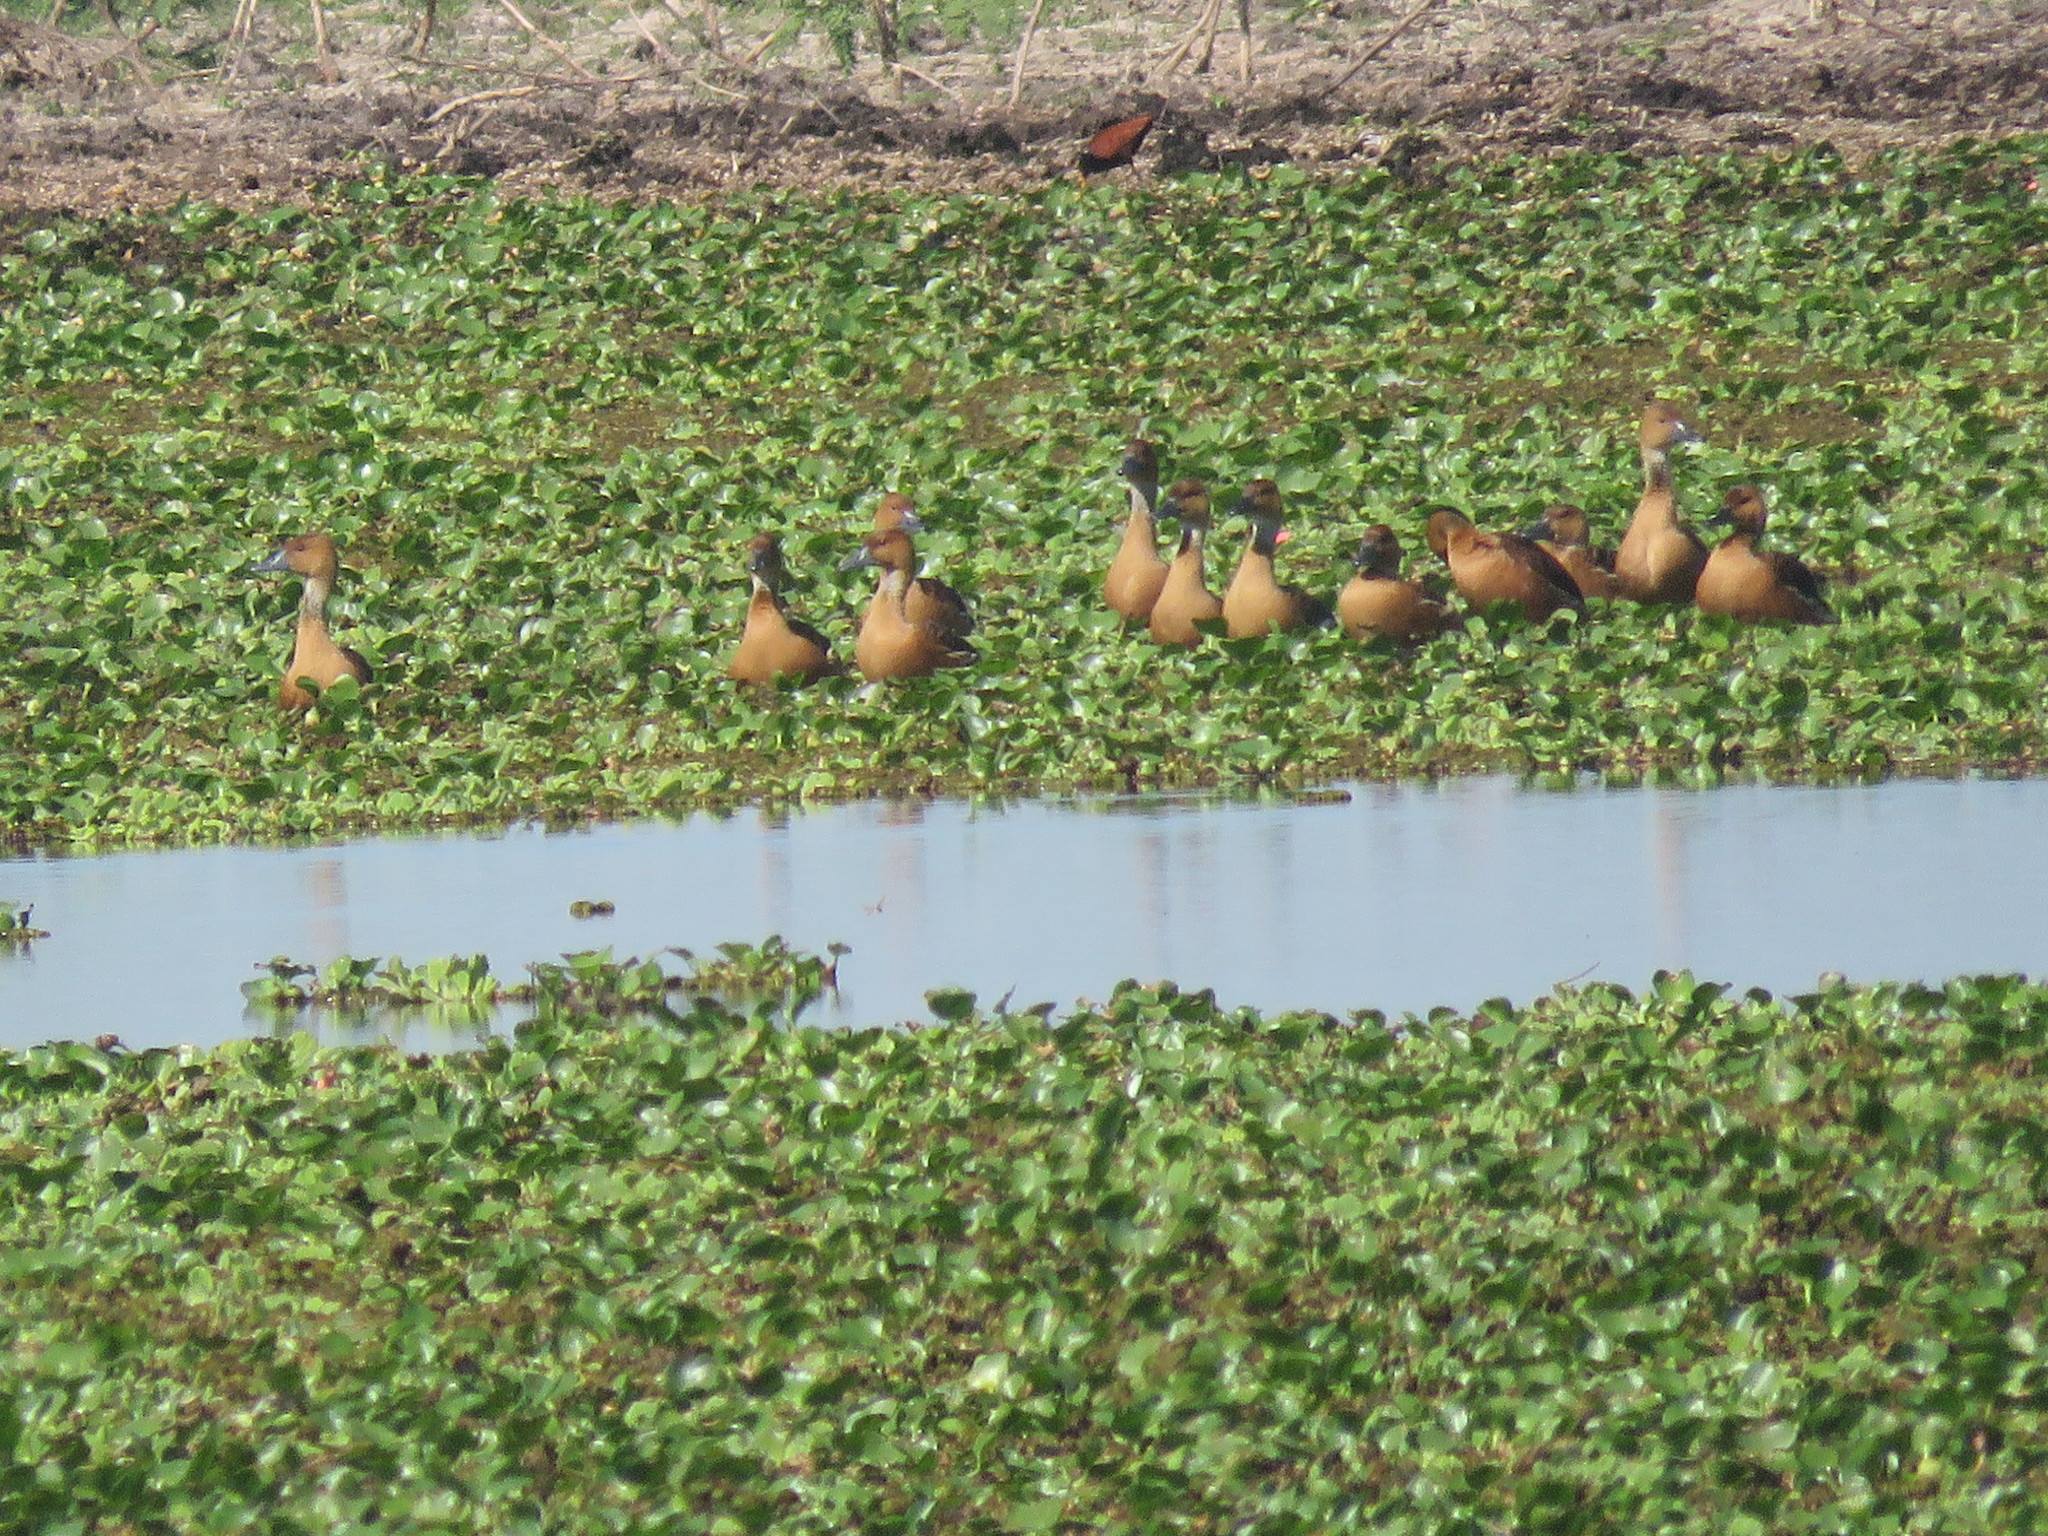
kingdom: Animalia
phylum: Chordata
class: Aves
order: Anseriformes
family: Anatidae
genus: Dendrocygna
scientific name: Dendrocygna bicolor
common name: Fulvous whistling duck
